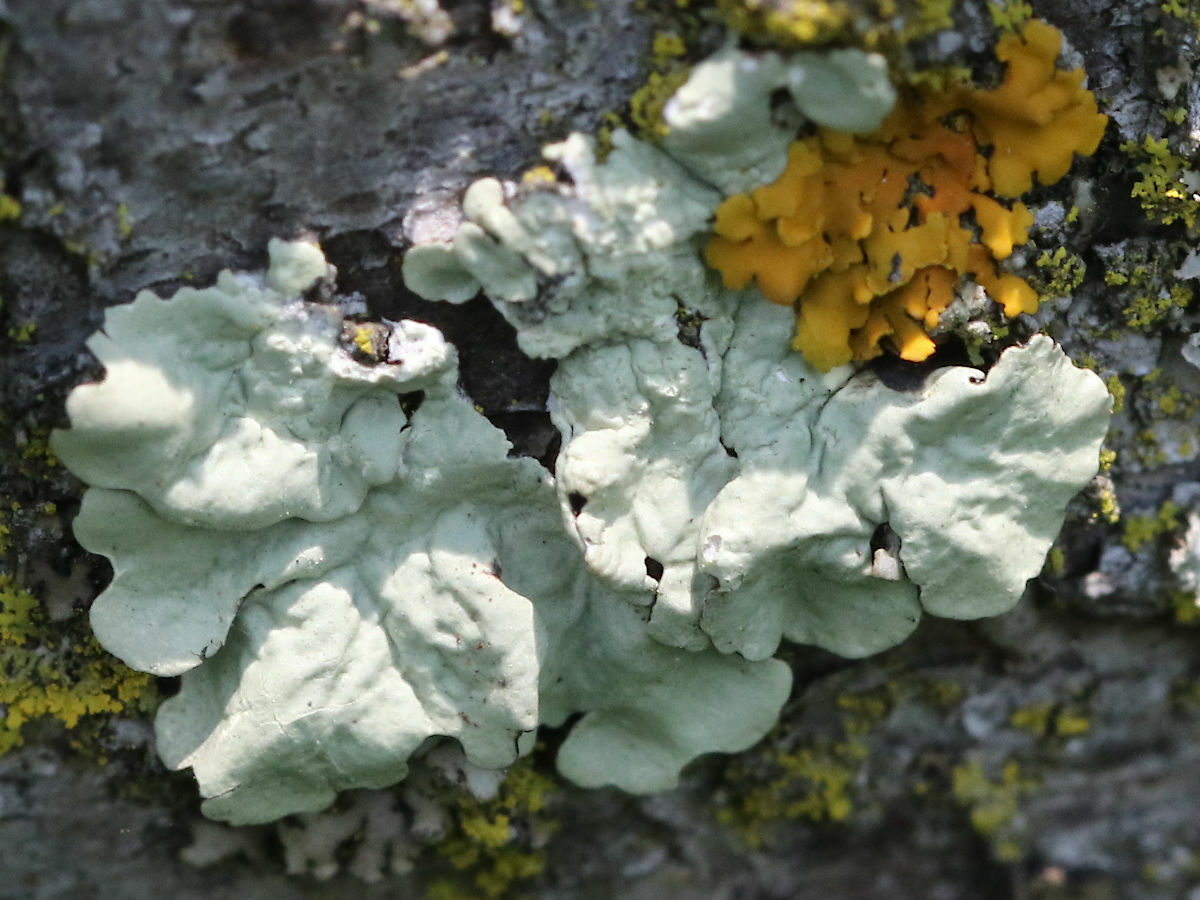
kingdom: Fungi
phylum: Ascomycota
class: Lecanoromycetes
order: Lecanorales
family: Parmeliaceae
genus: Flavoparmelia
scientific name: Flavoparmelia caperata
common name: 40-mile per hour lichen
